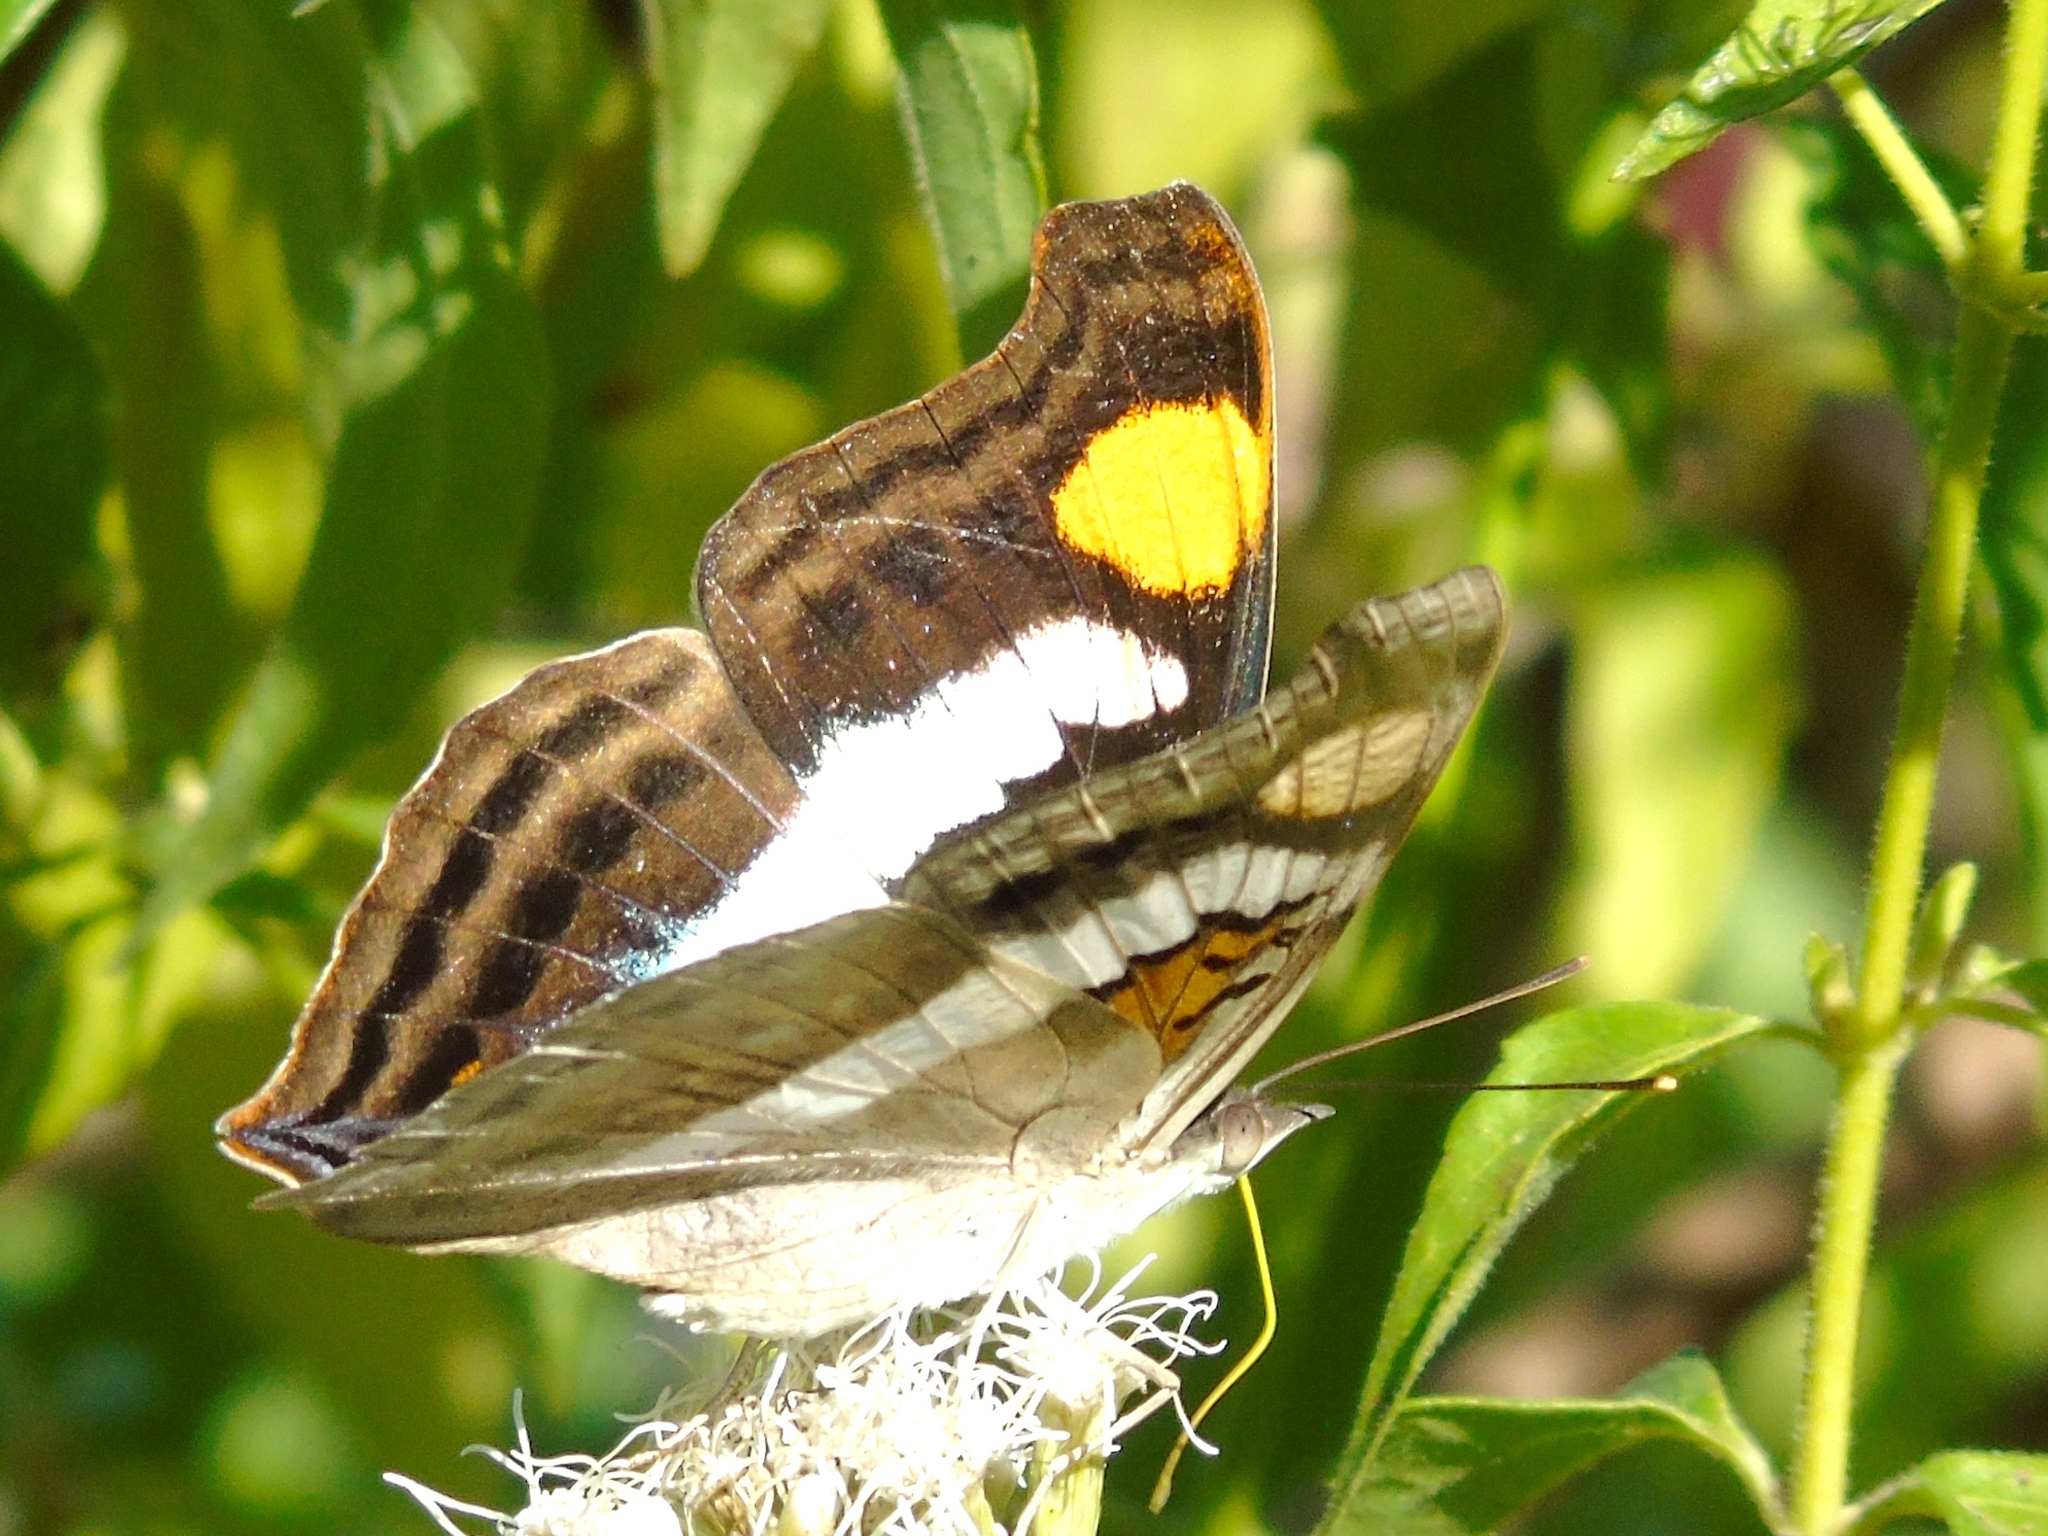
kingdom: Animalia
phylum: Arthropoda
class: Insecta
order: Lepidoptera
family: Nymphalidae
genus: Doxocopa
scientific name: Doxocopa laure
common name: Silver emperor
